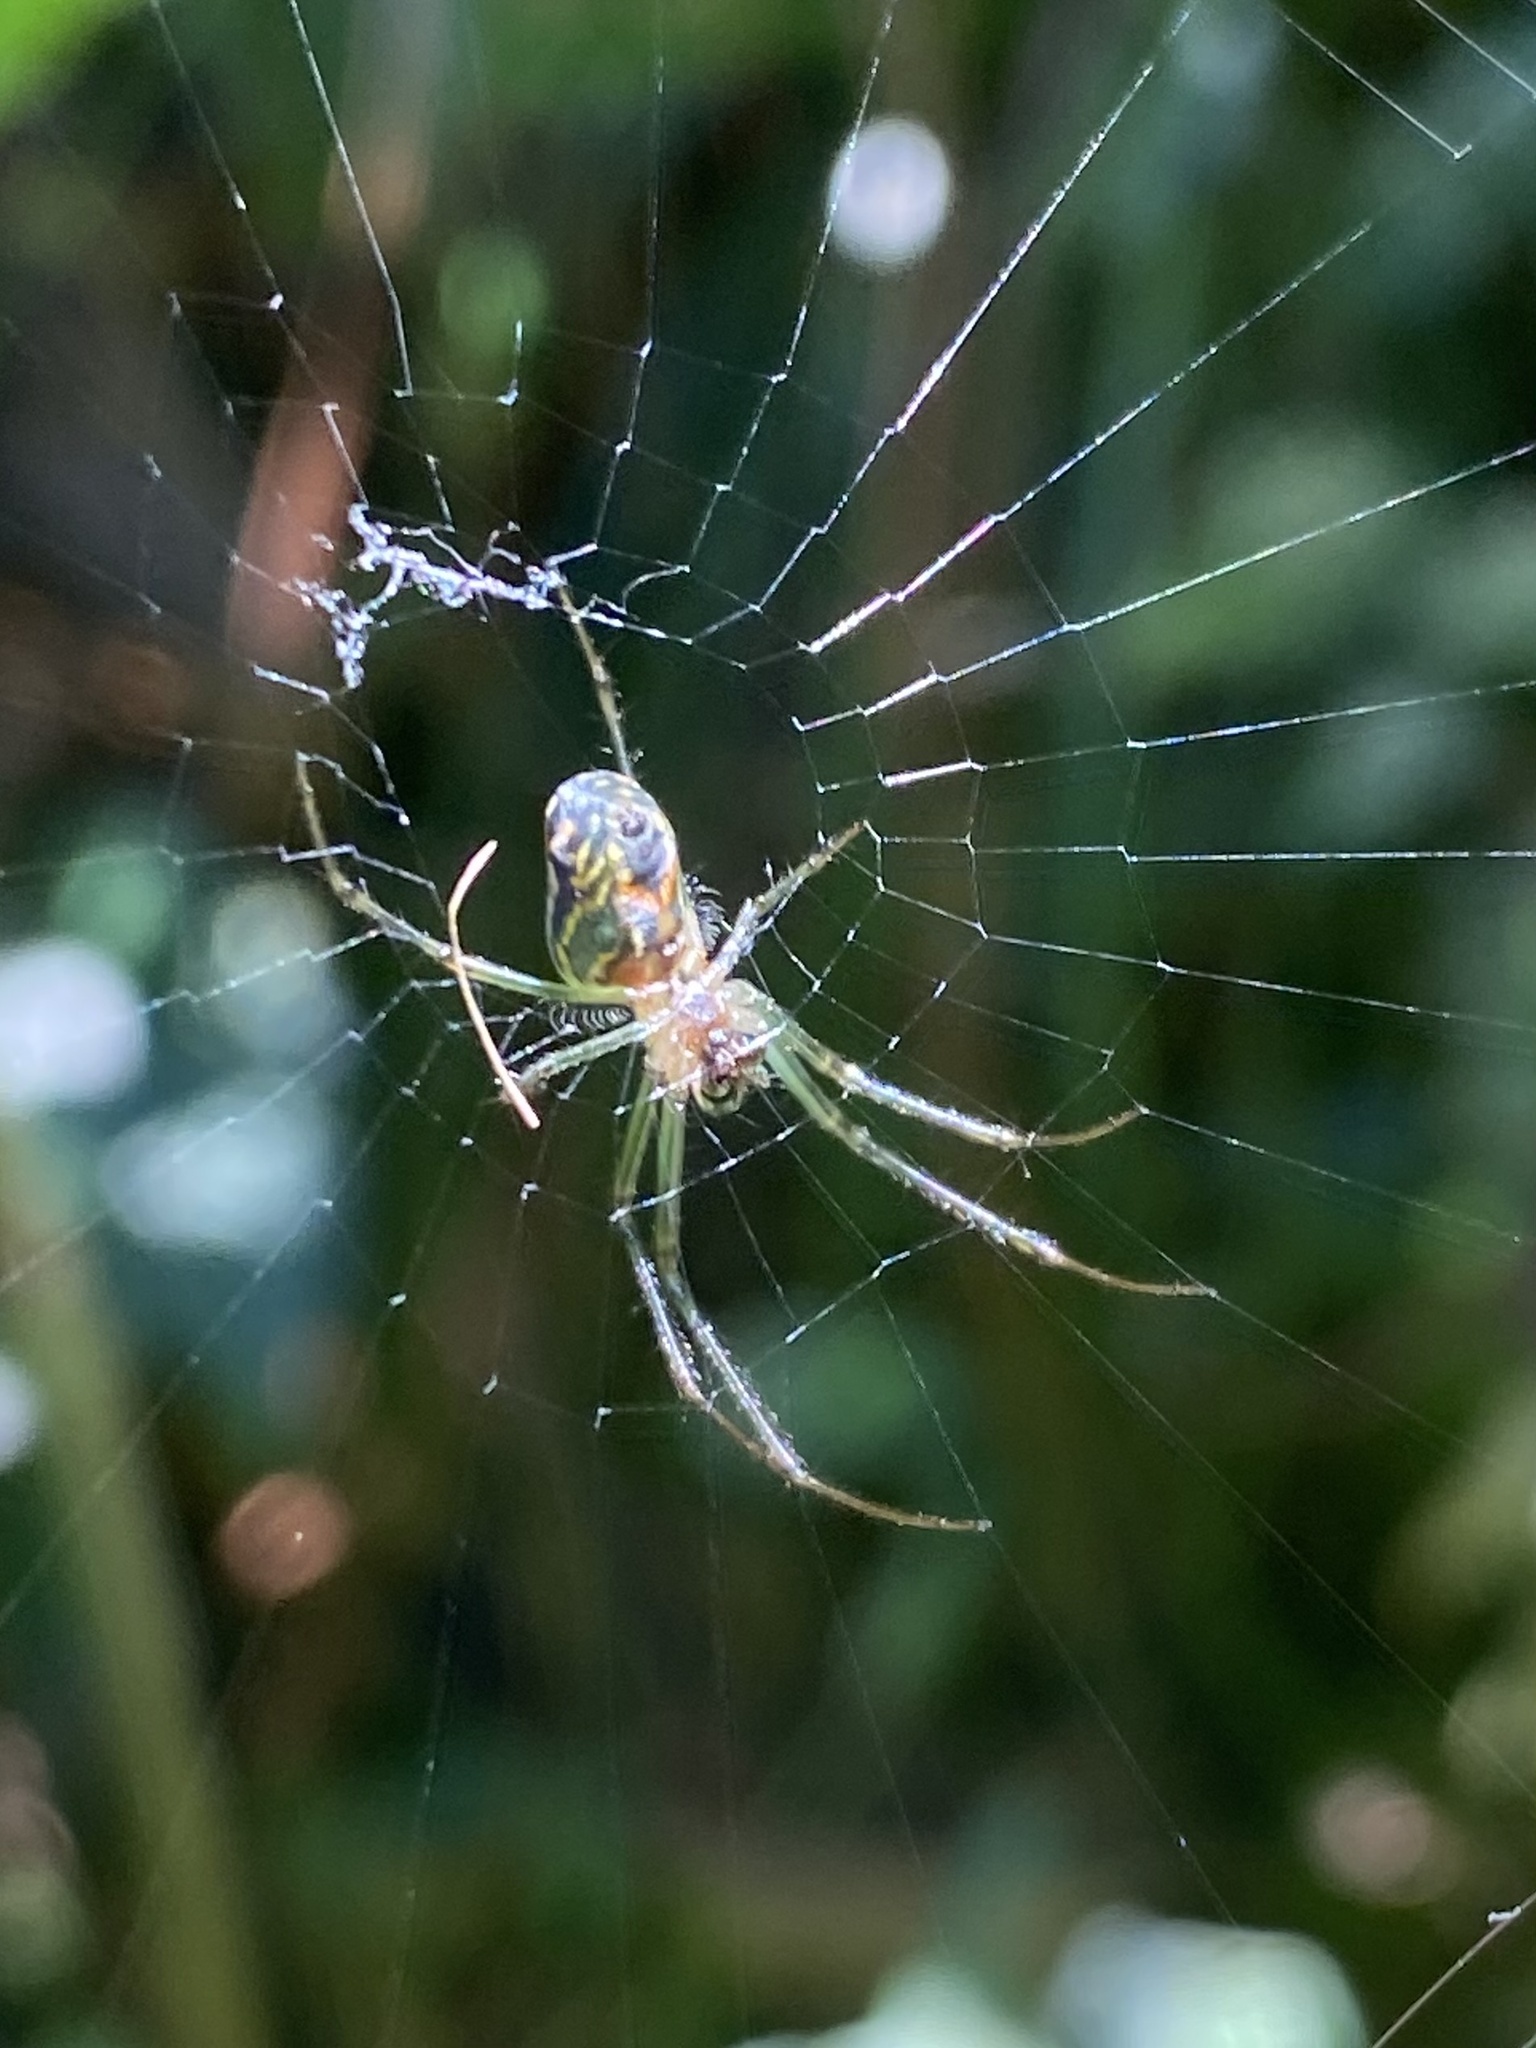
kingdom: Animalia
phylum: Arthropoda
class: Arachnida
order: Araneae
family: Tetragnathidae
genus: Leucauge
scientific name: Leucauge mariana
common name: Longjawed orb weavers
